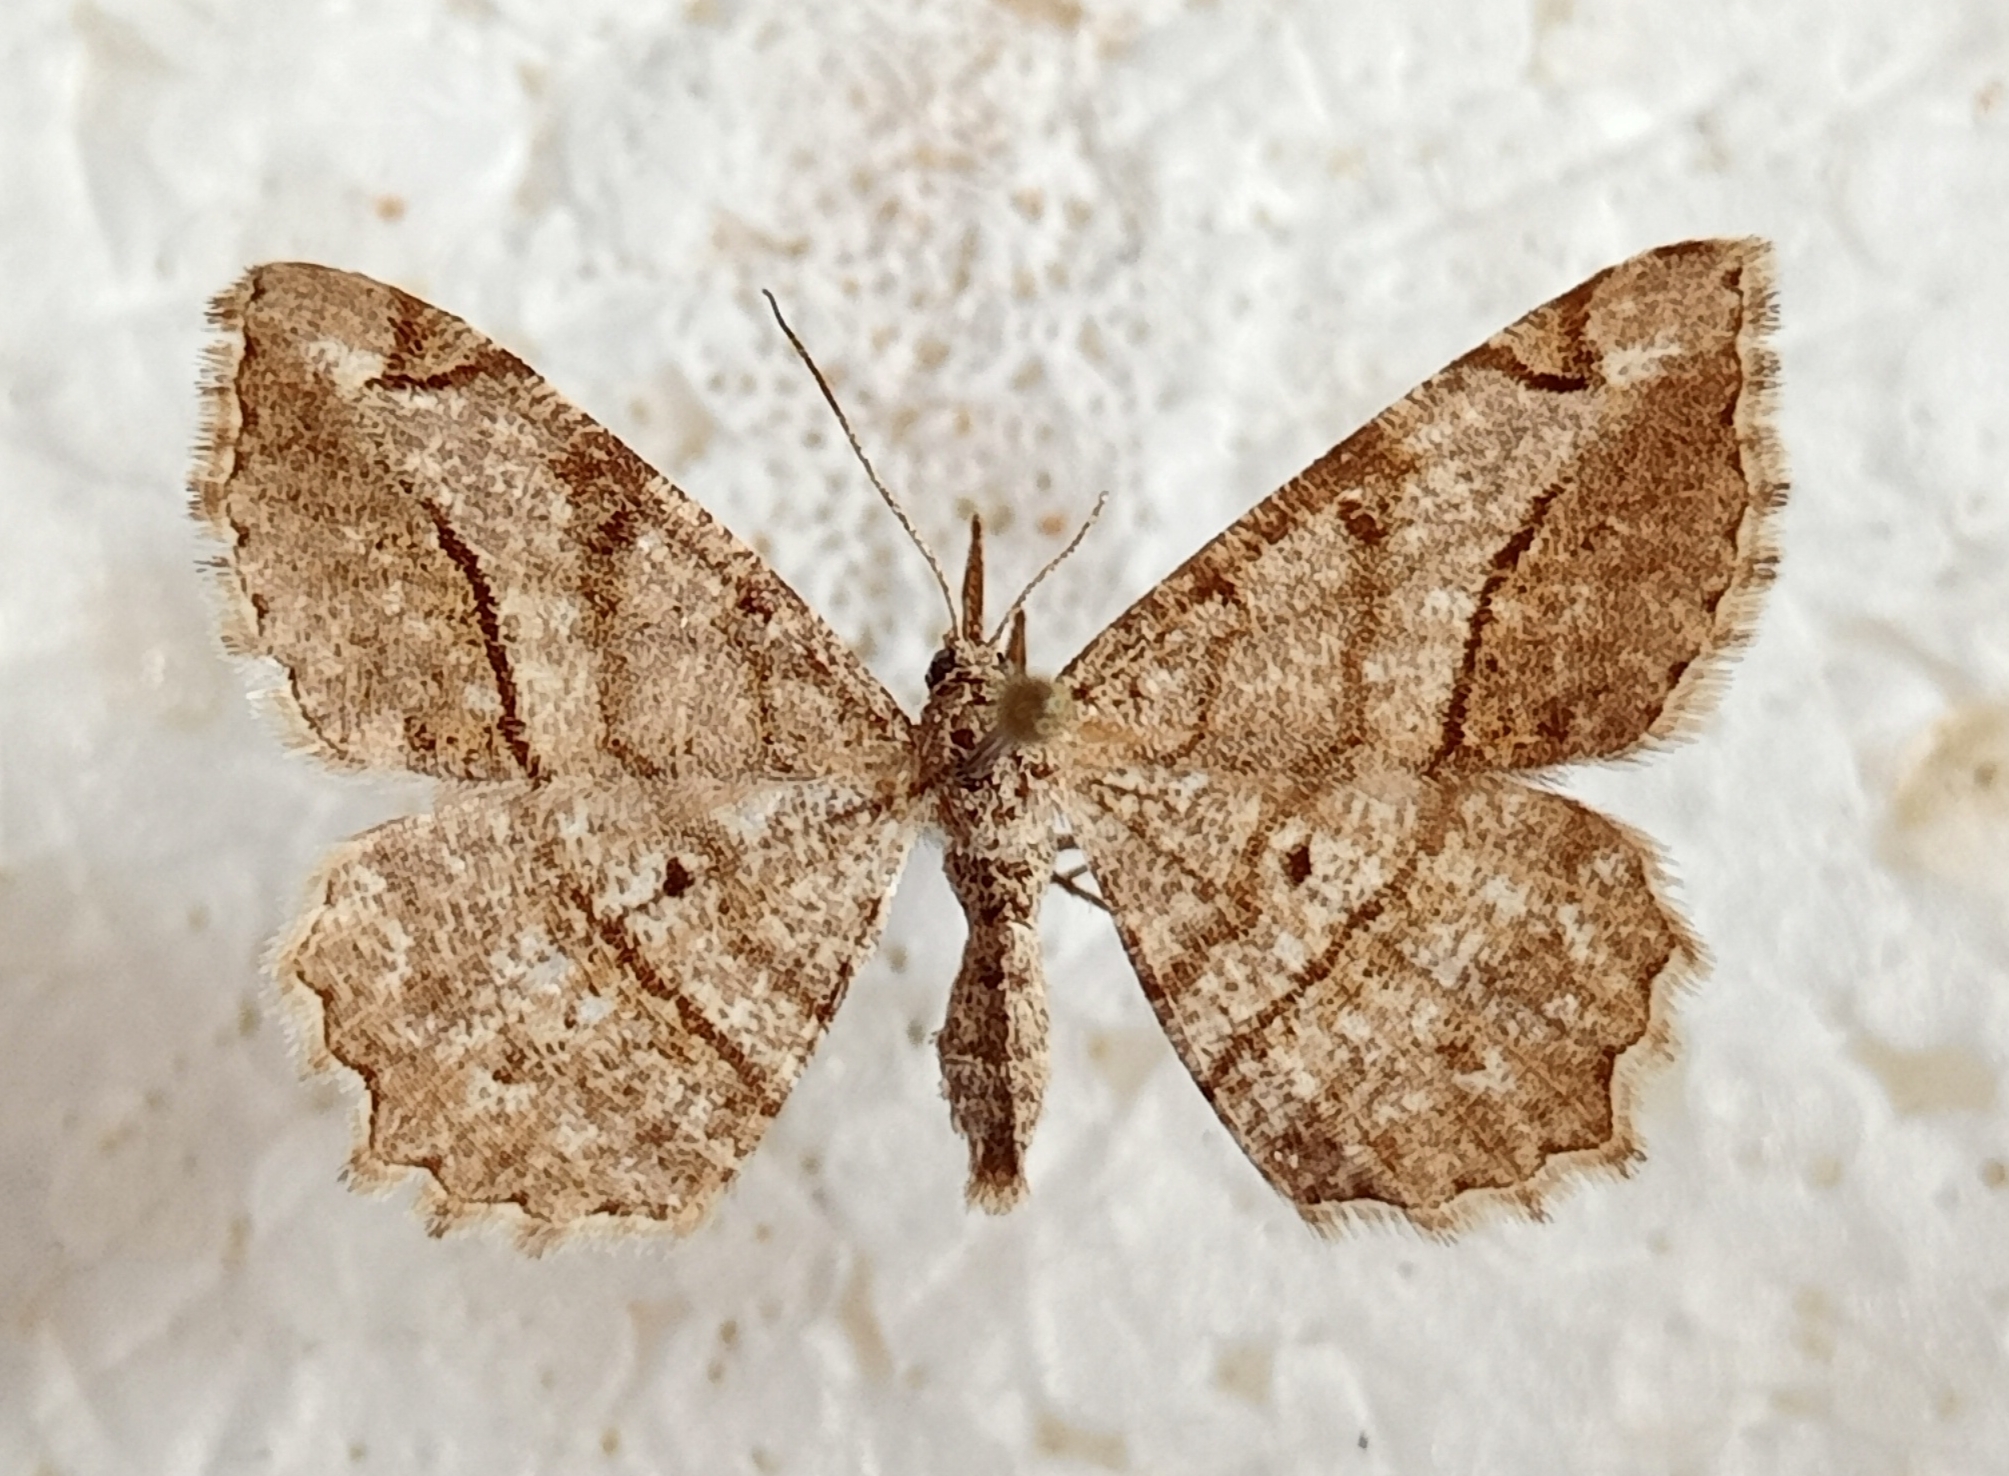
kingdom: Animalia
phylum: Arthropoda
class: Insecta
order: Lepidoptera
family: Geometridae
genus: Chiasmia
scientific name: Chiasmia aestimaria
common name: Tamarisk peacock
